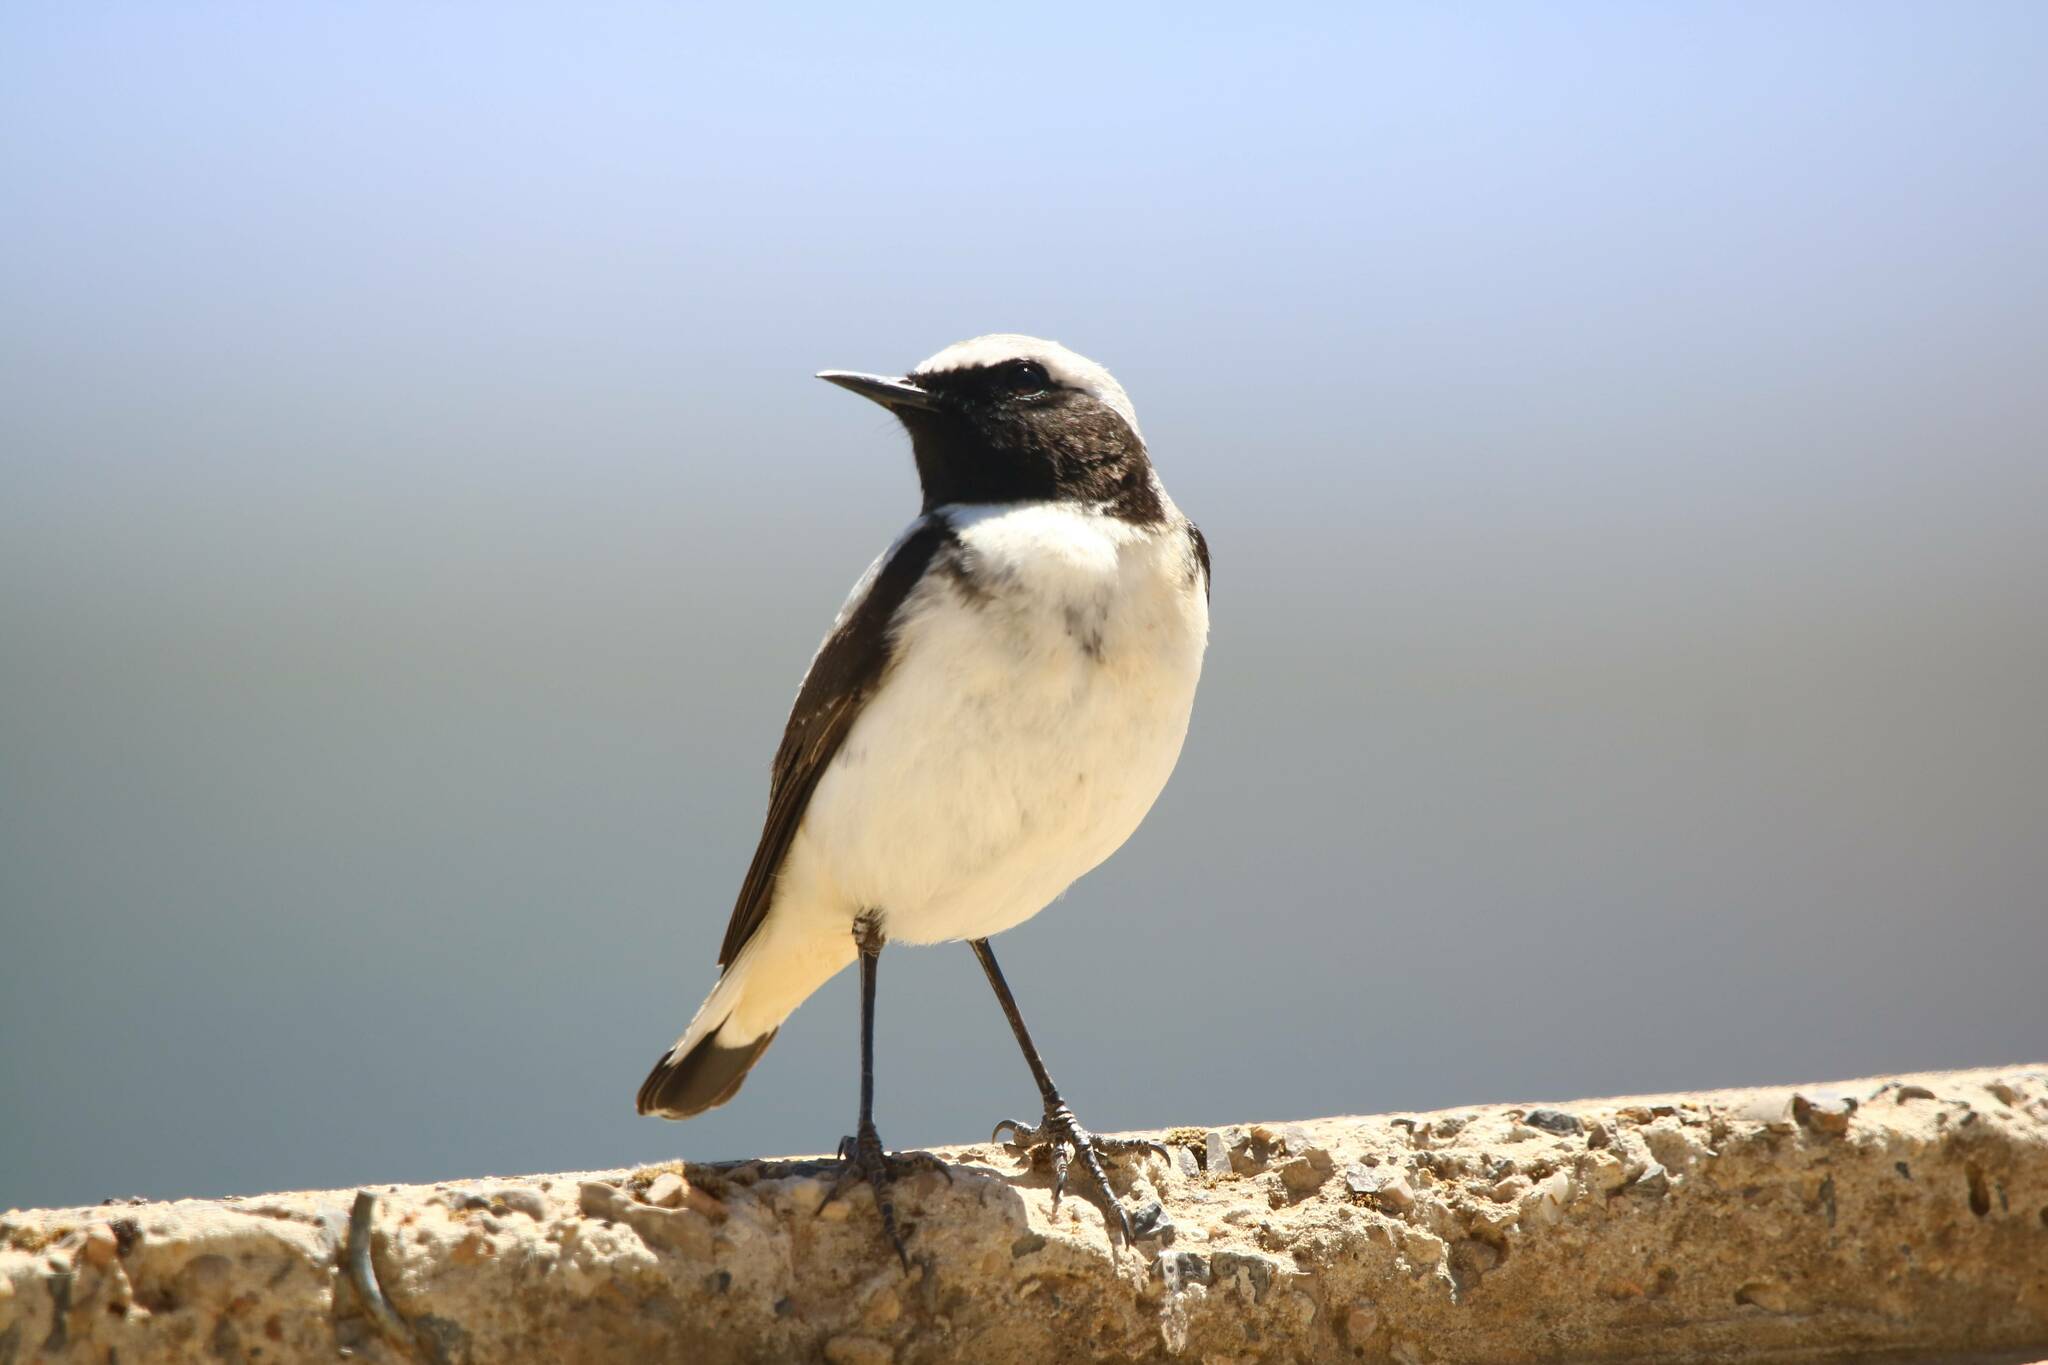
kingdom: Animalia
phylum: Chordata
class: Aves
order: Passeriformes
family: Muscicapidae
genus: Oenanthe
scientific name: Oenanthe oenanthe
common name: Northern wheatear
